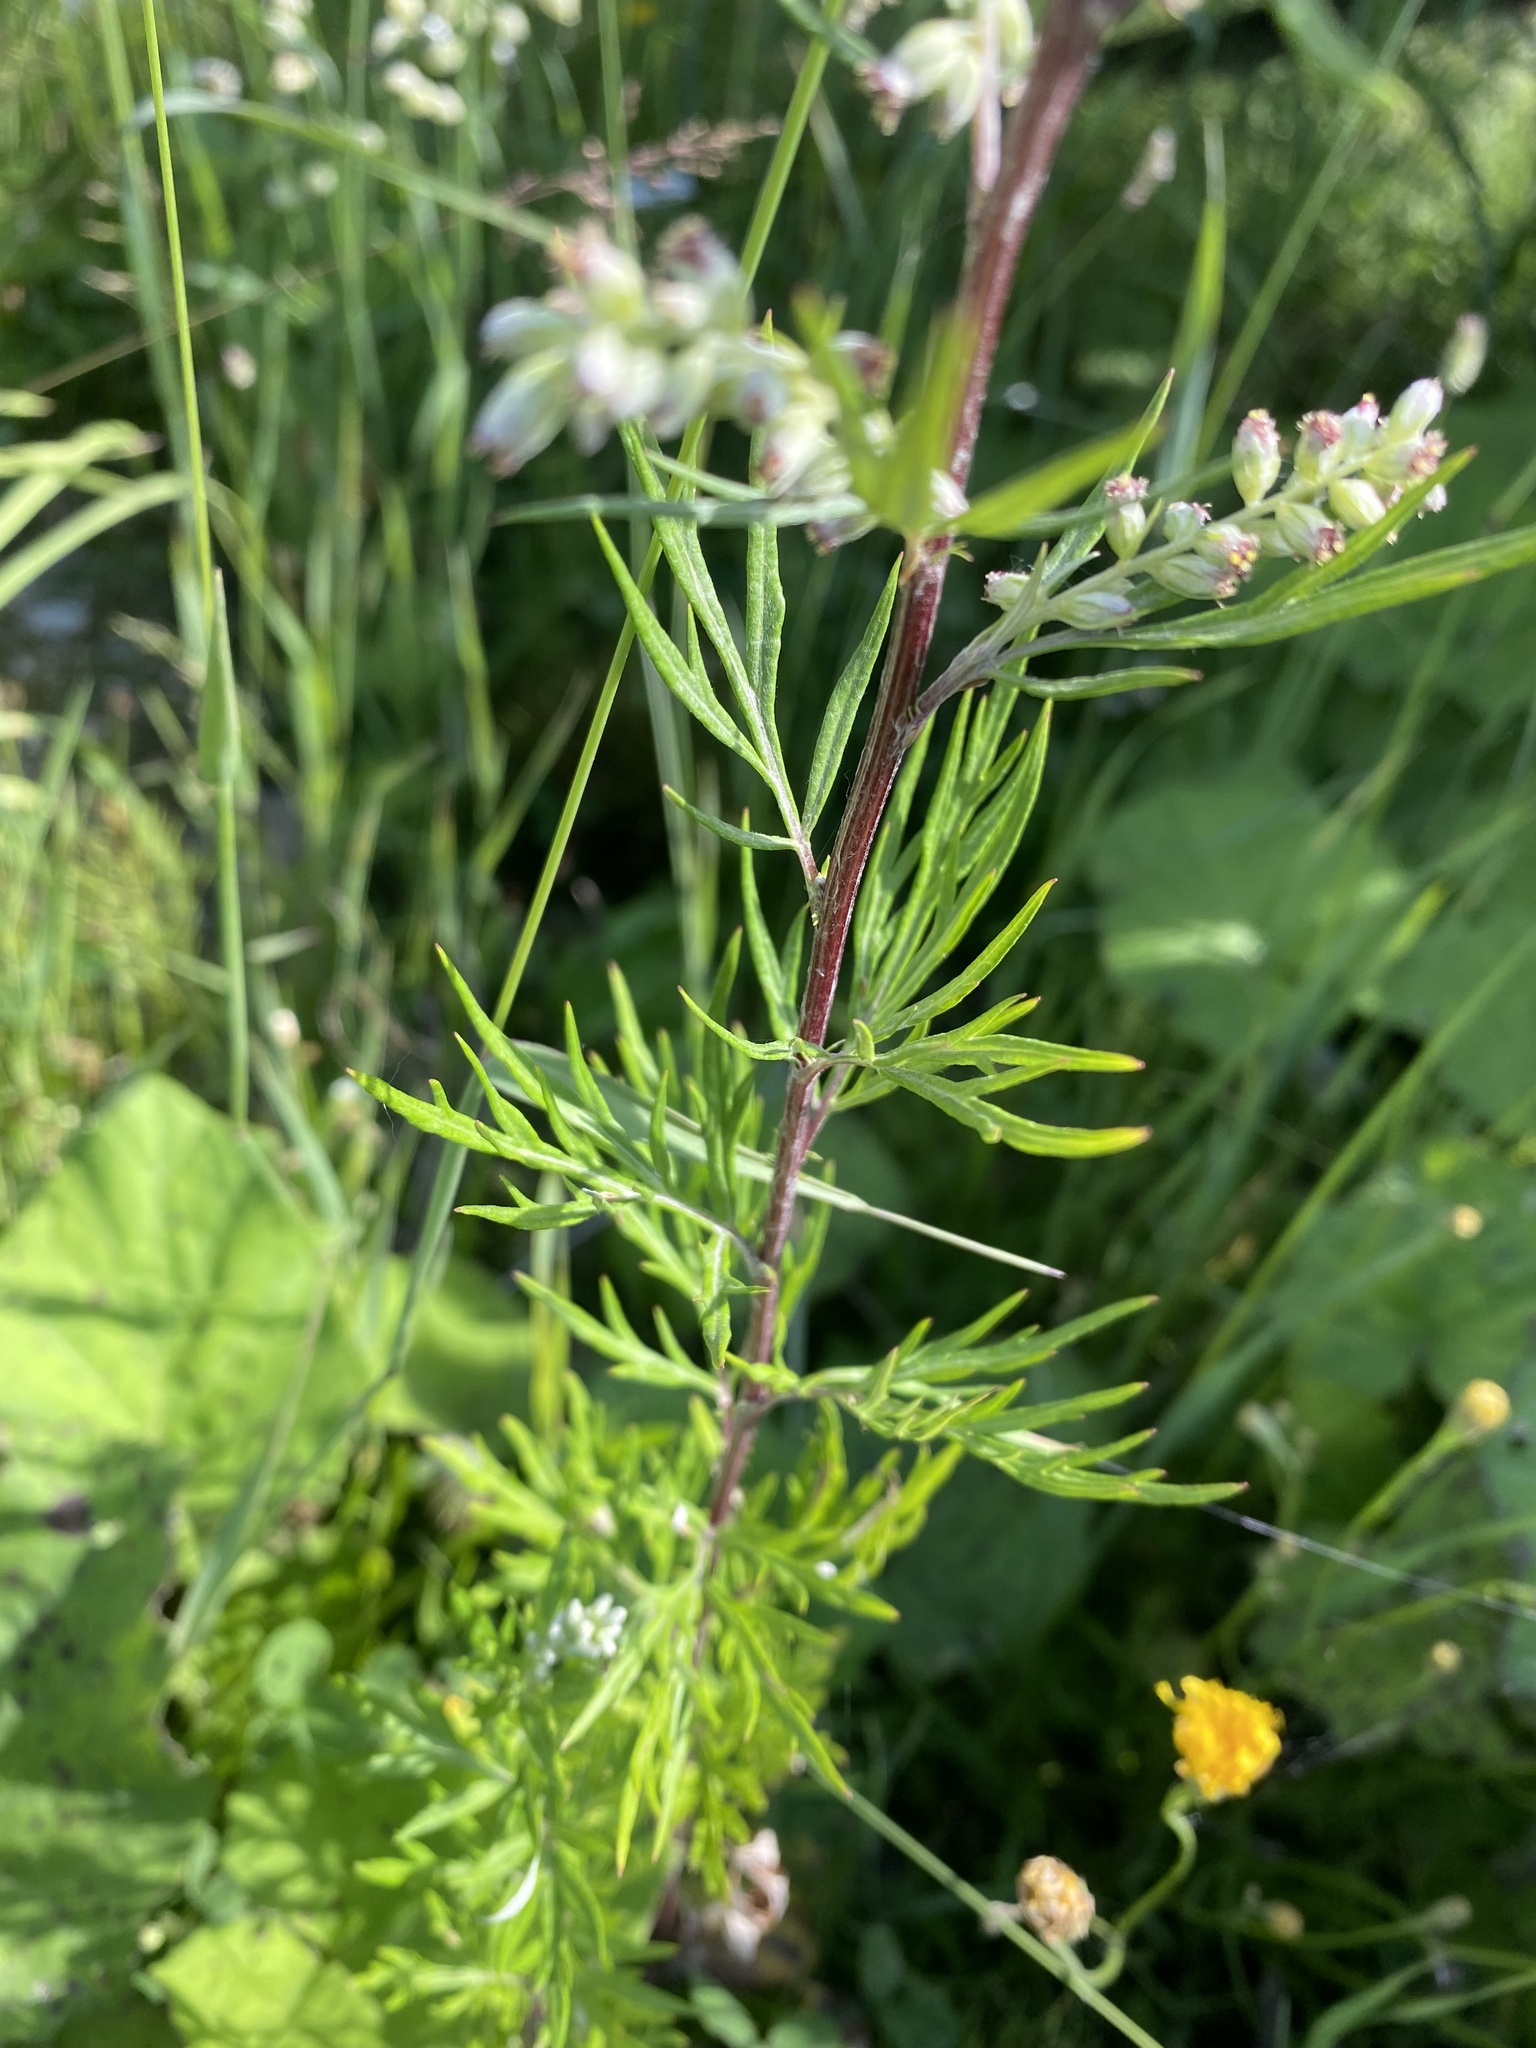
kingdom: Plantae
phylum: Tracheophyta
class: Magnoliopsida
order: Asterales
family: Asteraceae
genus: Artemisia
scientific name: Artemisia vulgaris
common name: Mugwort
